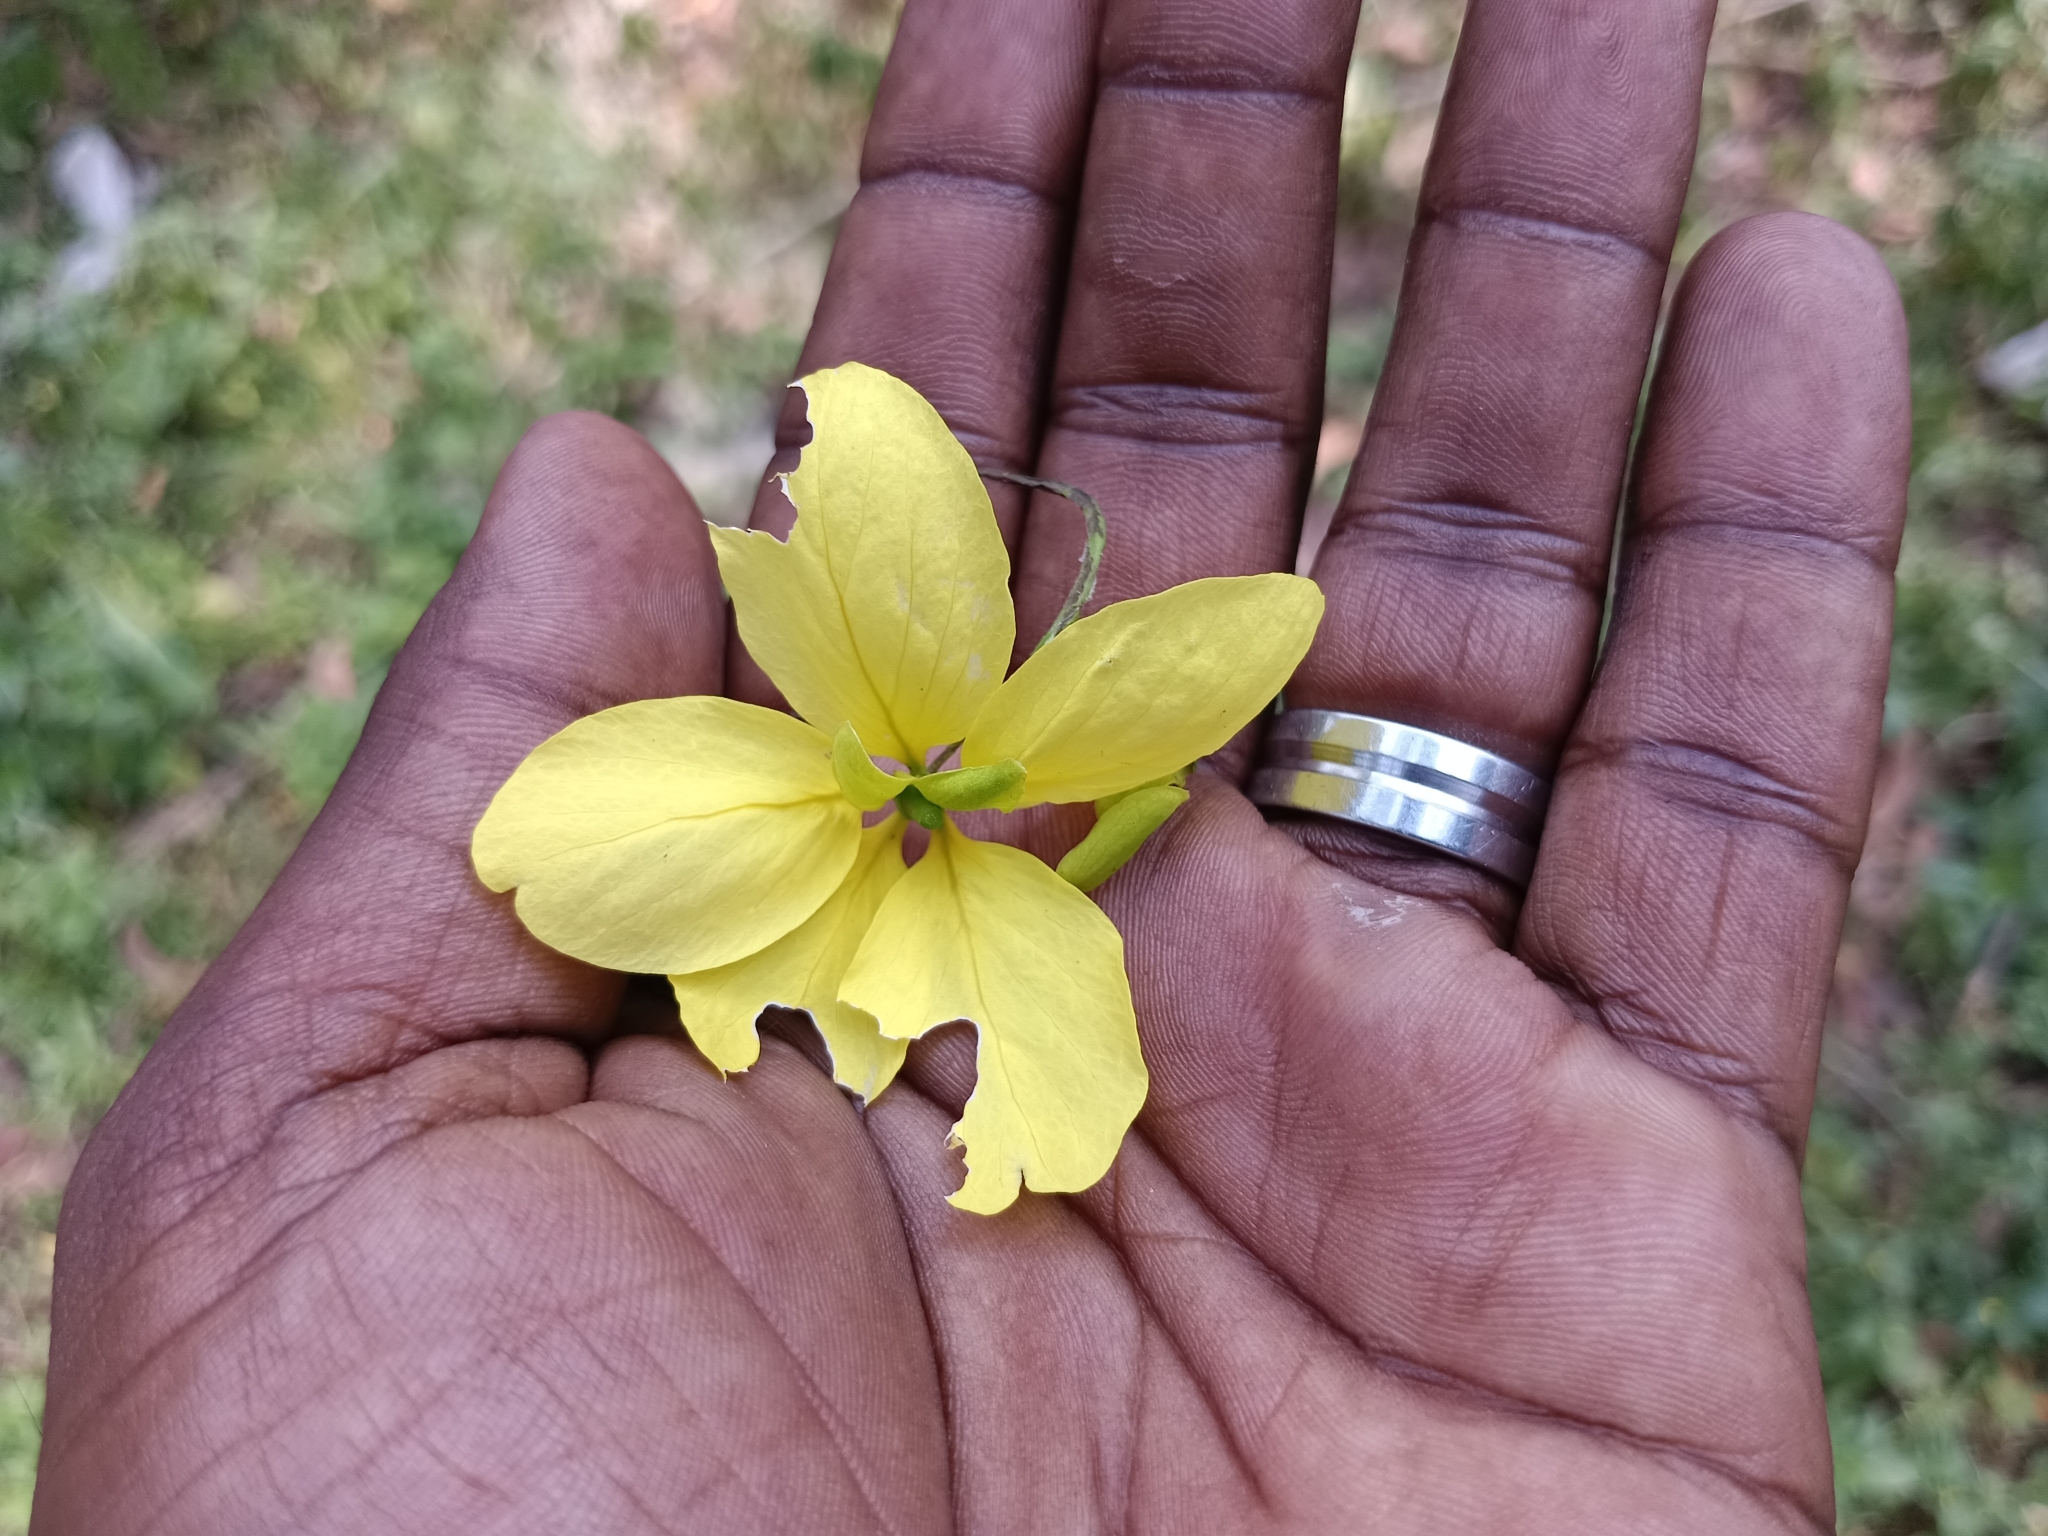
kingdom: Plantae
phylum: Tracheophyta
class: Magnoliopsida
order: Fabales
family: Fabaceae
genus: Cassia
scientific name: Cassia fistula
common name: Golden shower
